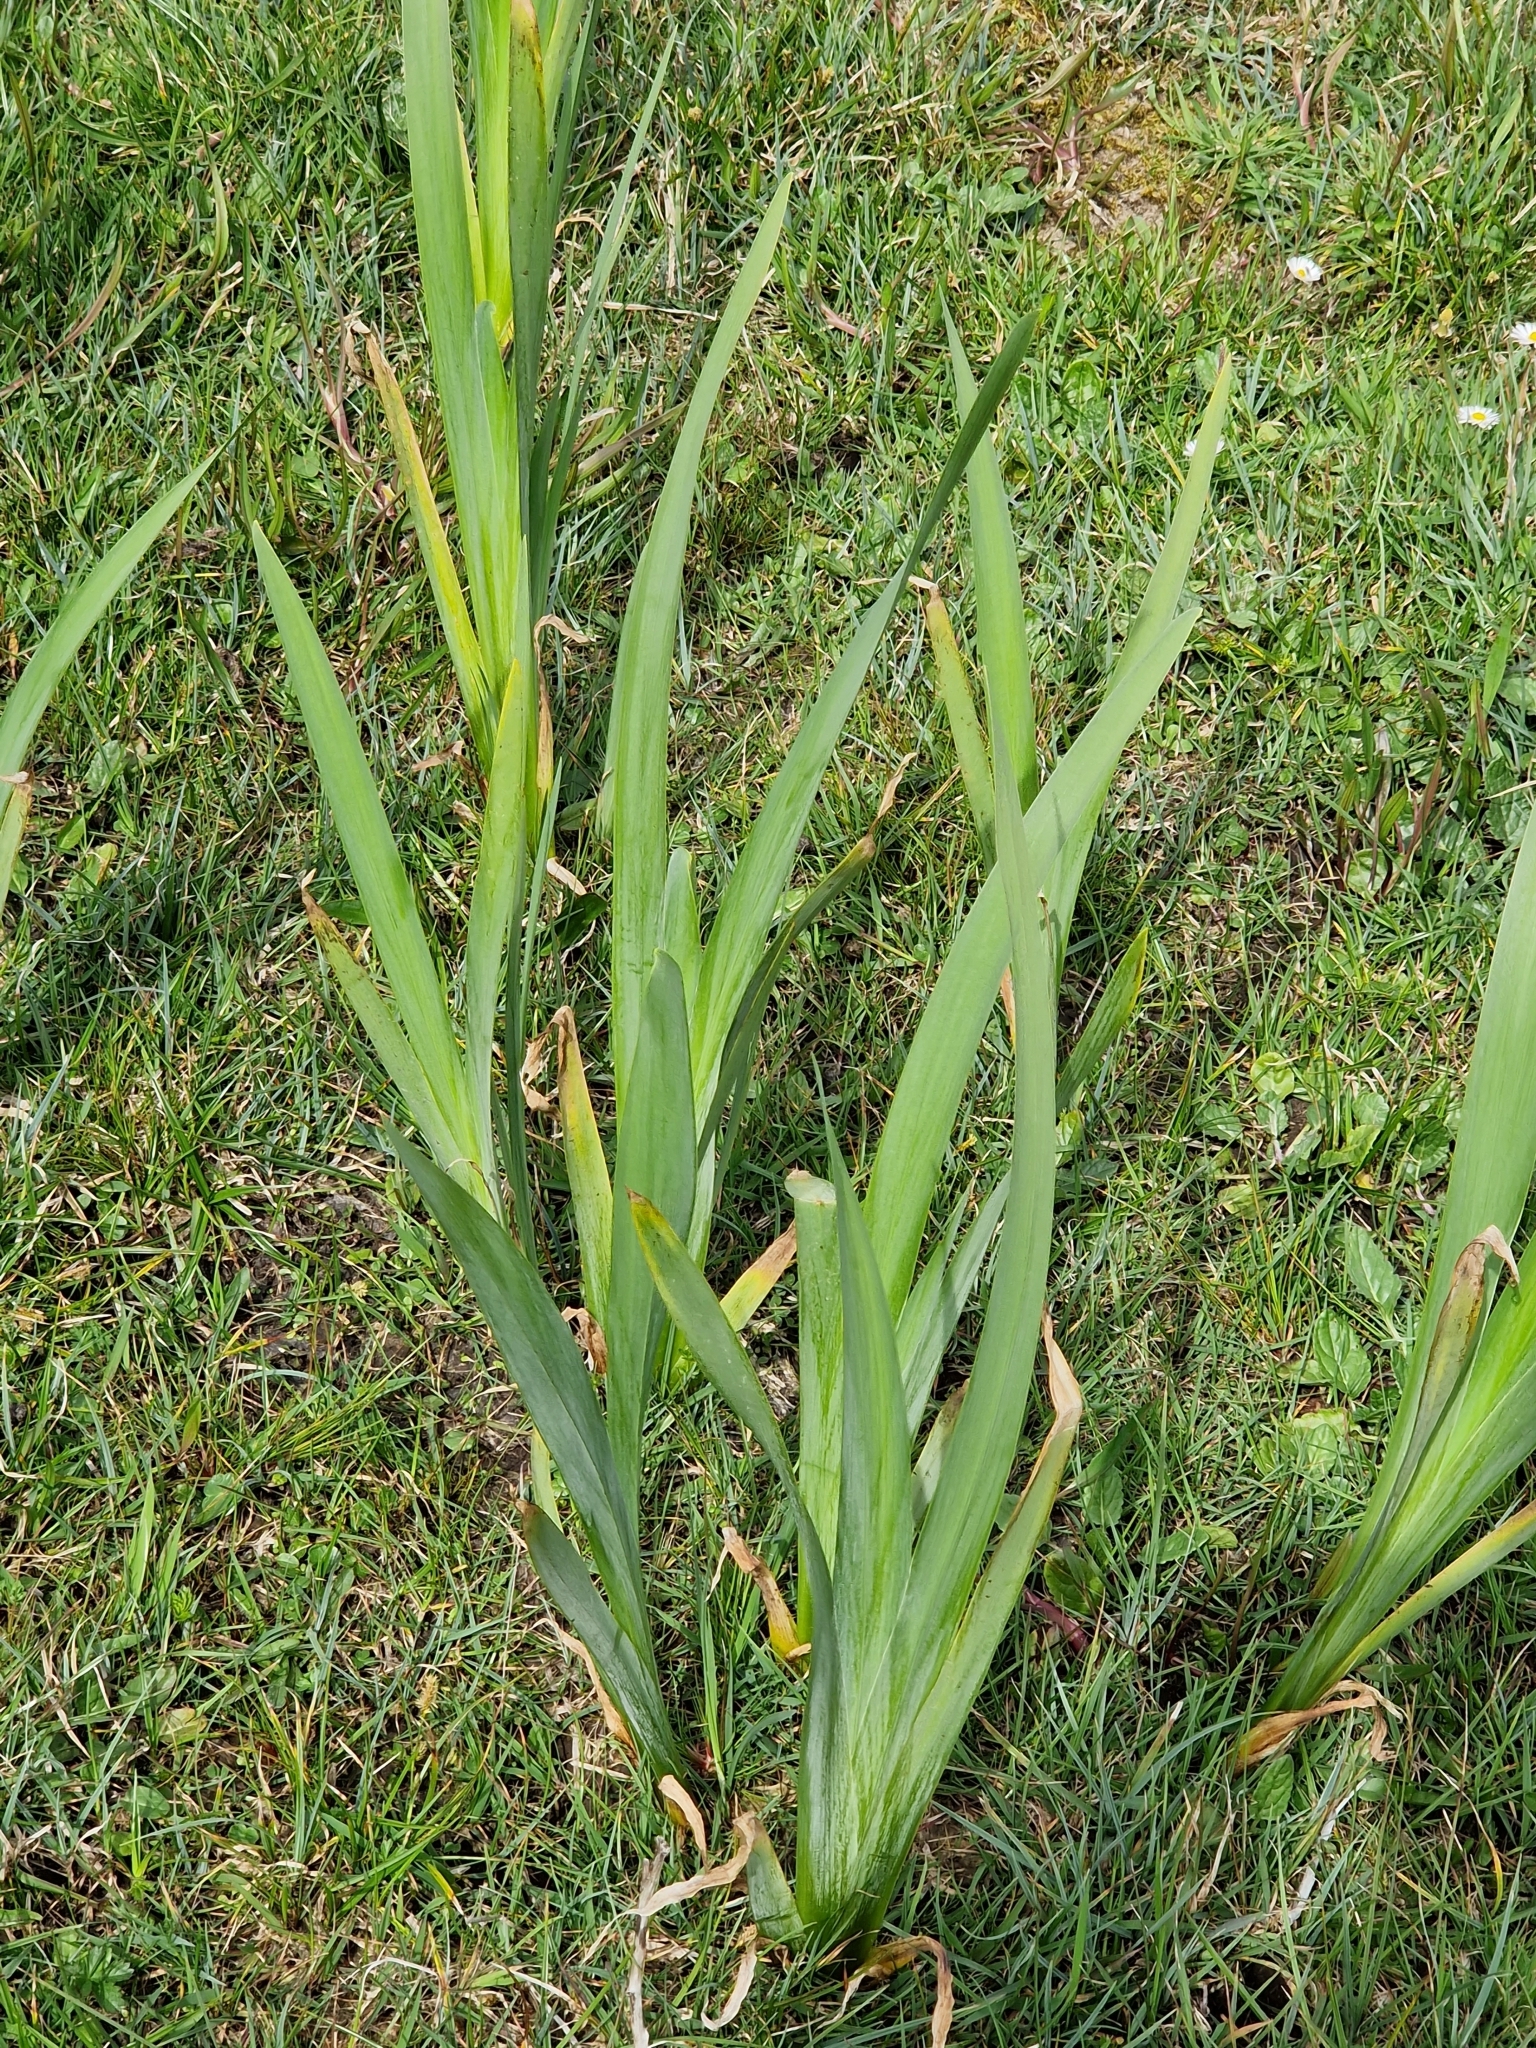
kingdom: Plantae
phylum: Tracheophyta
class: Liliopsida
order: Asparagales
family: Iridaceae
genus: Iris
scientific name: Iris pseudacorus
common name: Yellow flag
